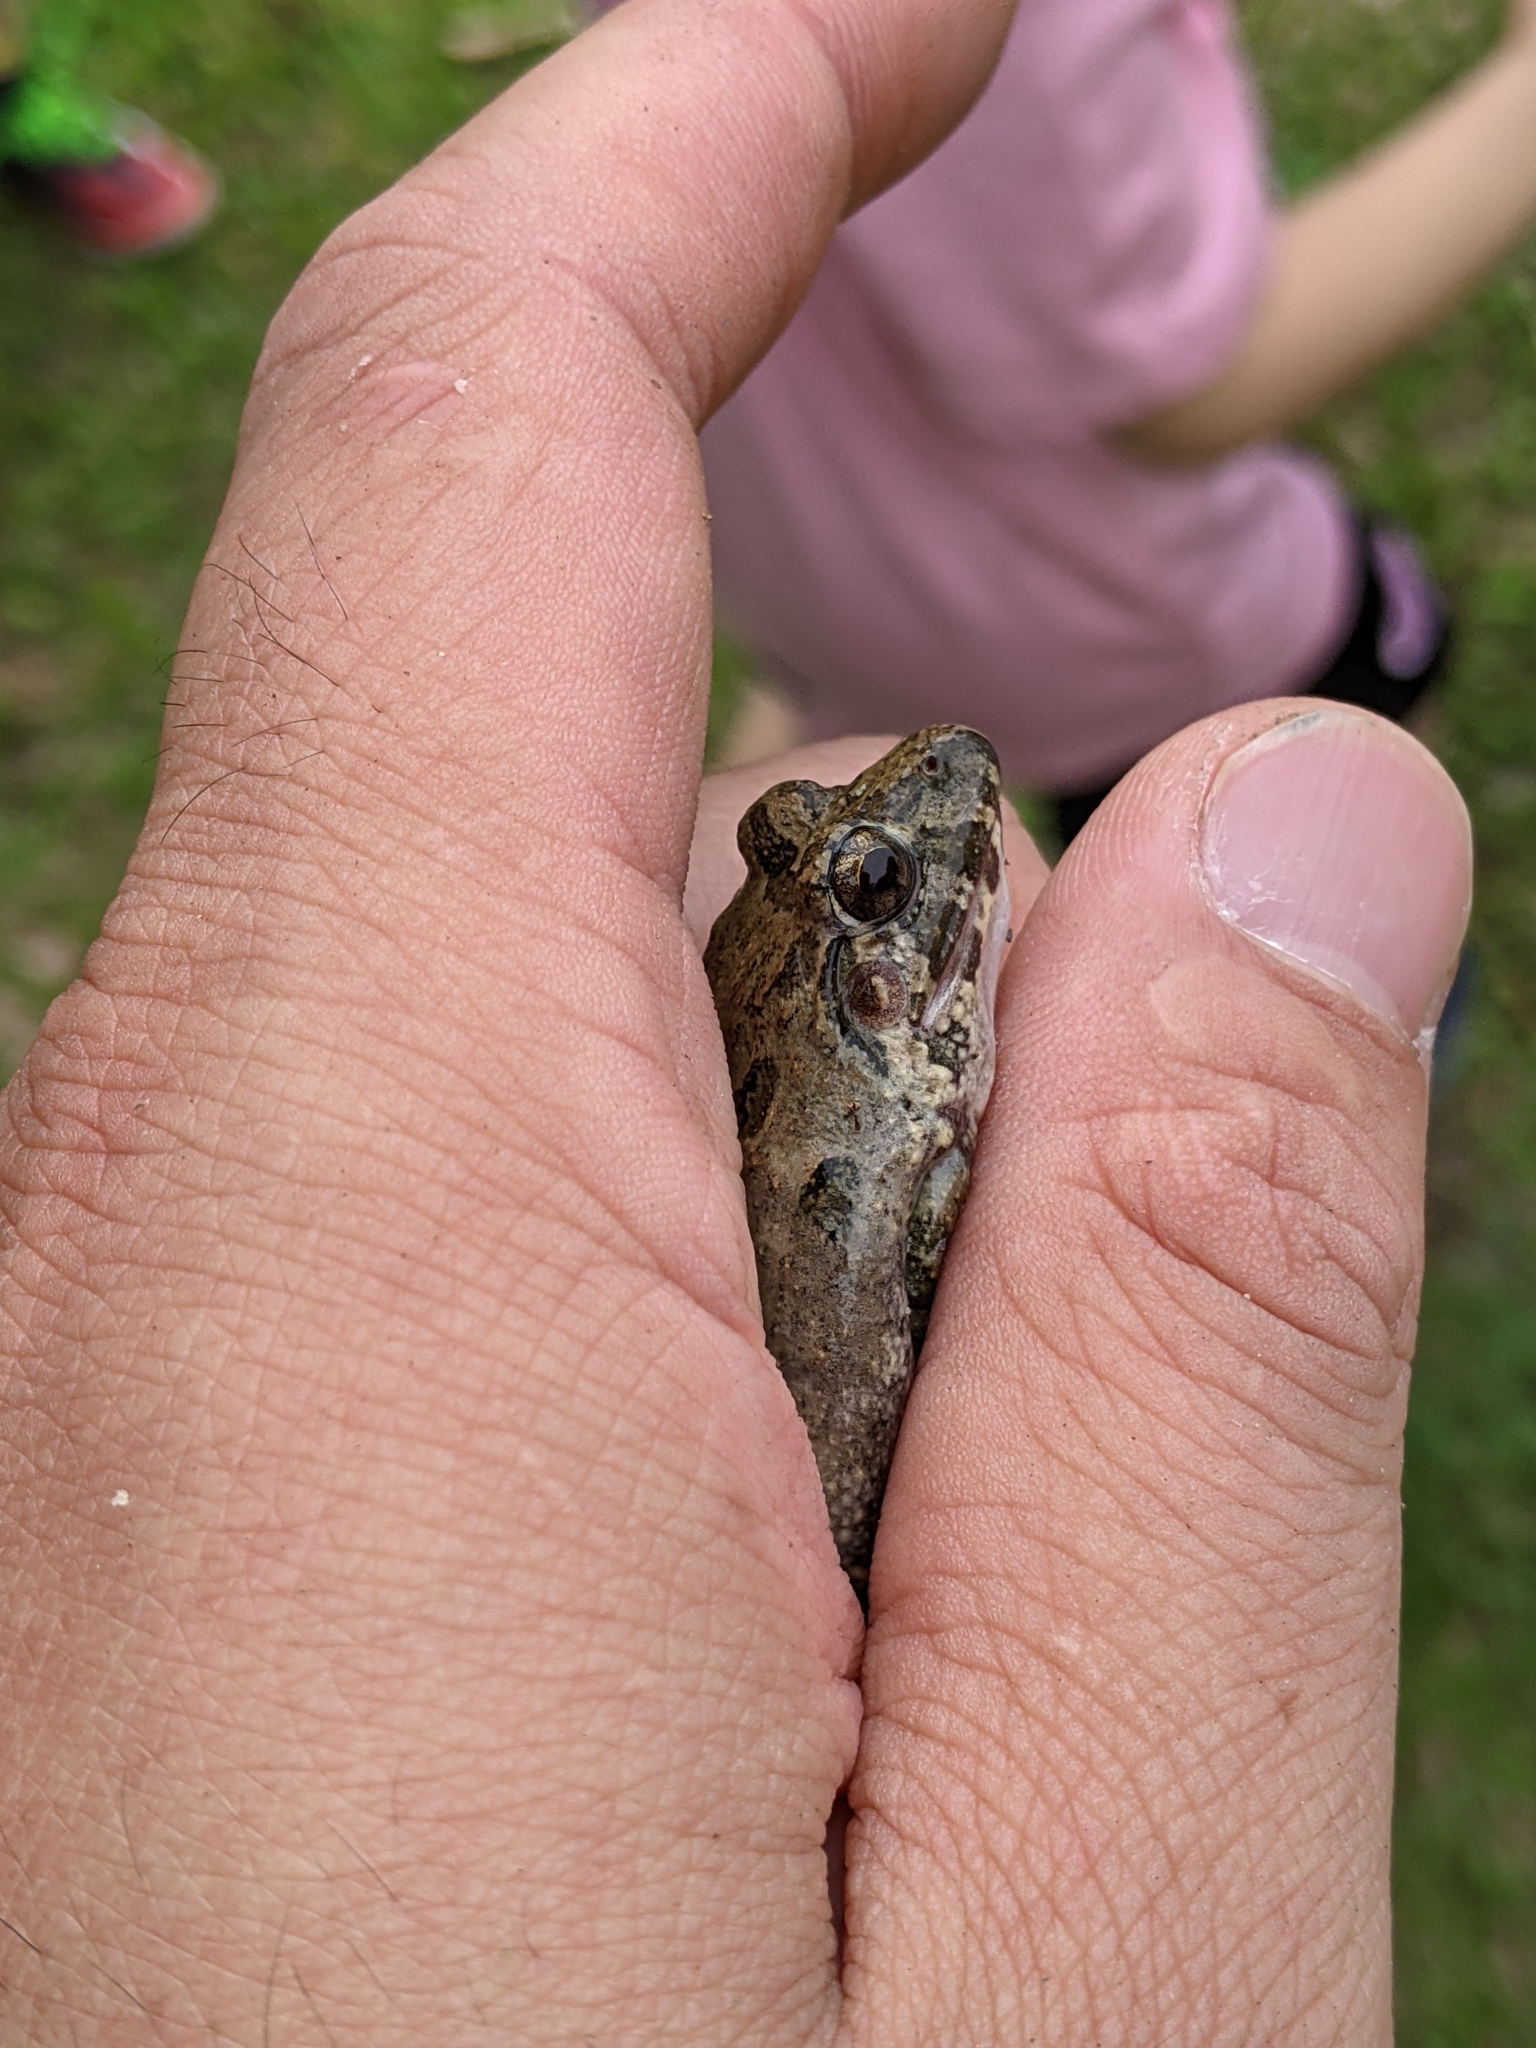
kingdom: Animalia
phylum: Chordata
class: Amphibia
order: Anura
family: Dicroglossidae
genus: Fejervarya
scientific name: Fejervarya limnocharis
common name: Asian grass frog/common pond frog/field frog/grass frog/indian rice frog
